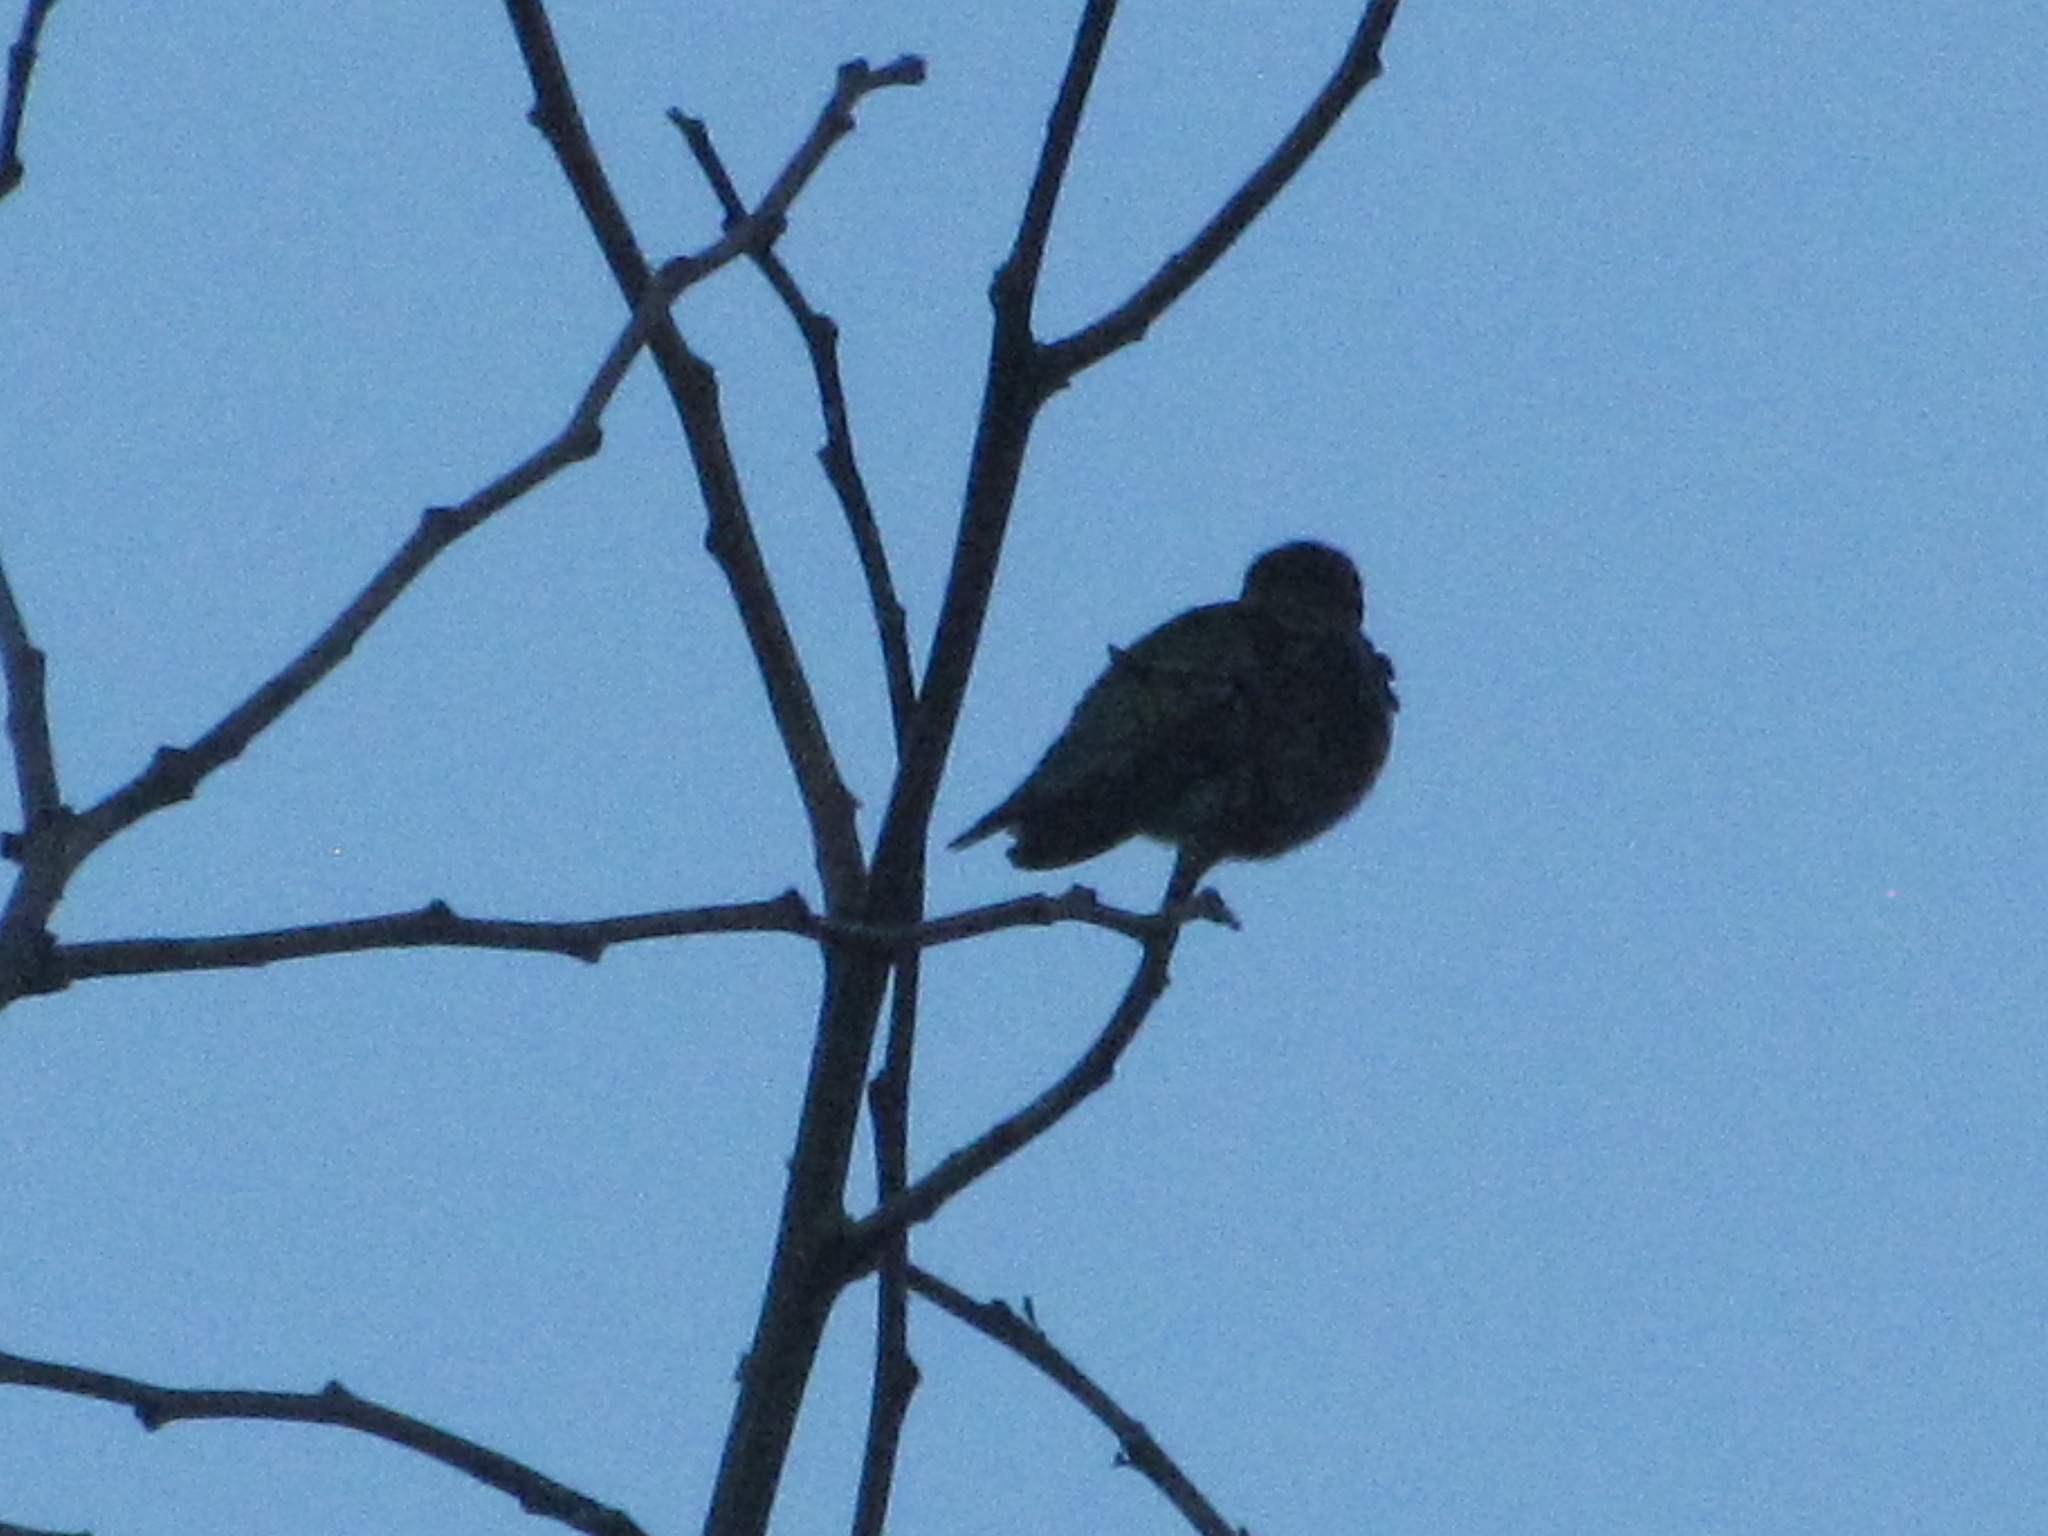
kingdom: Animalia
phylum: Chordata
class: Aves
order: Apodiformes
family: Trochilidae
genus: Calypte
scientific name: Calypte anna
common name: Anna's hummingbird
